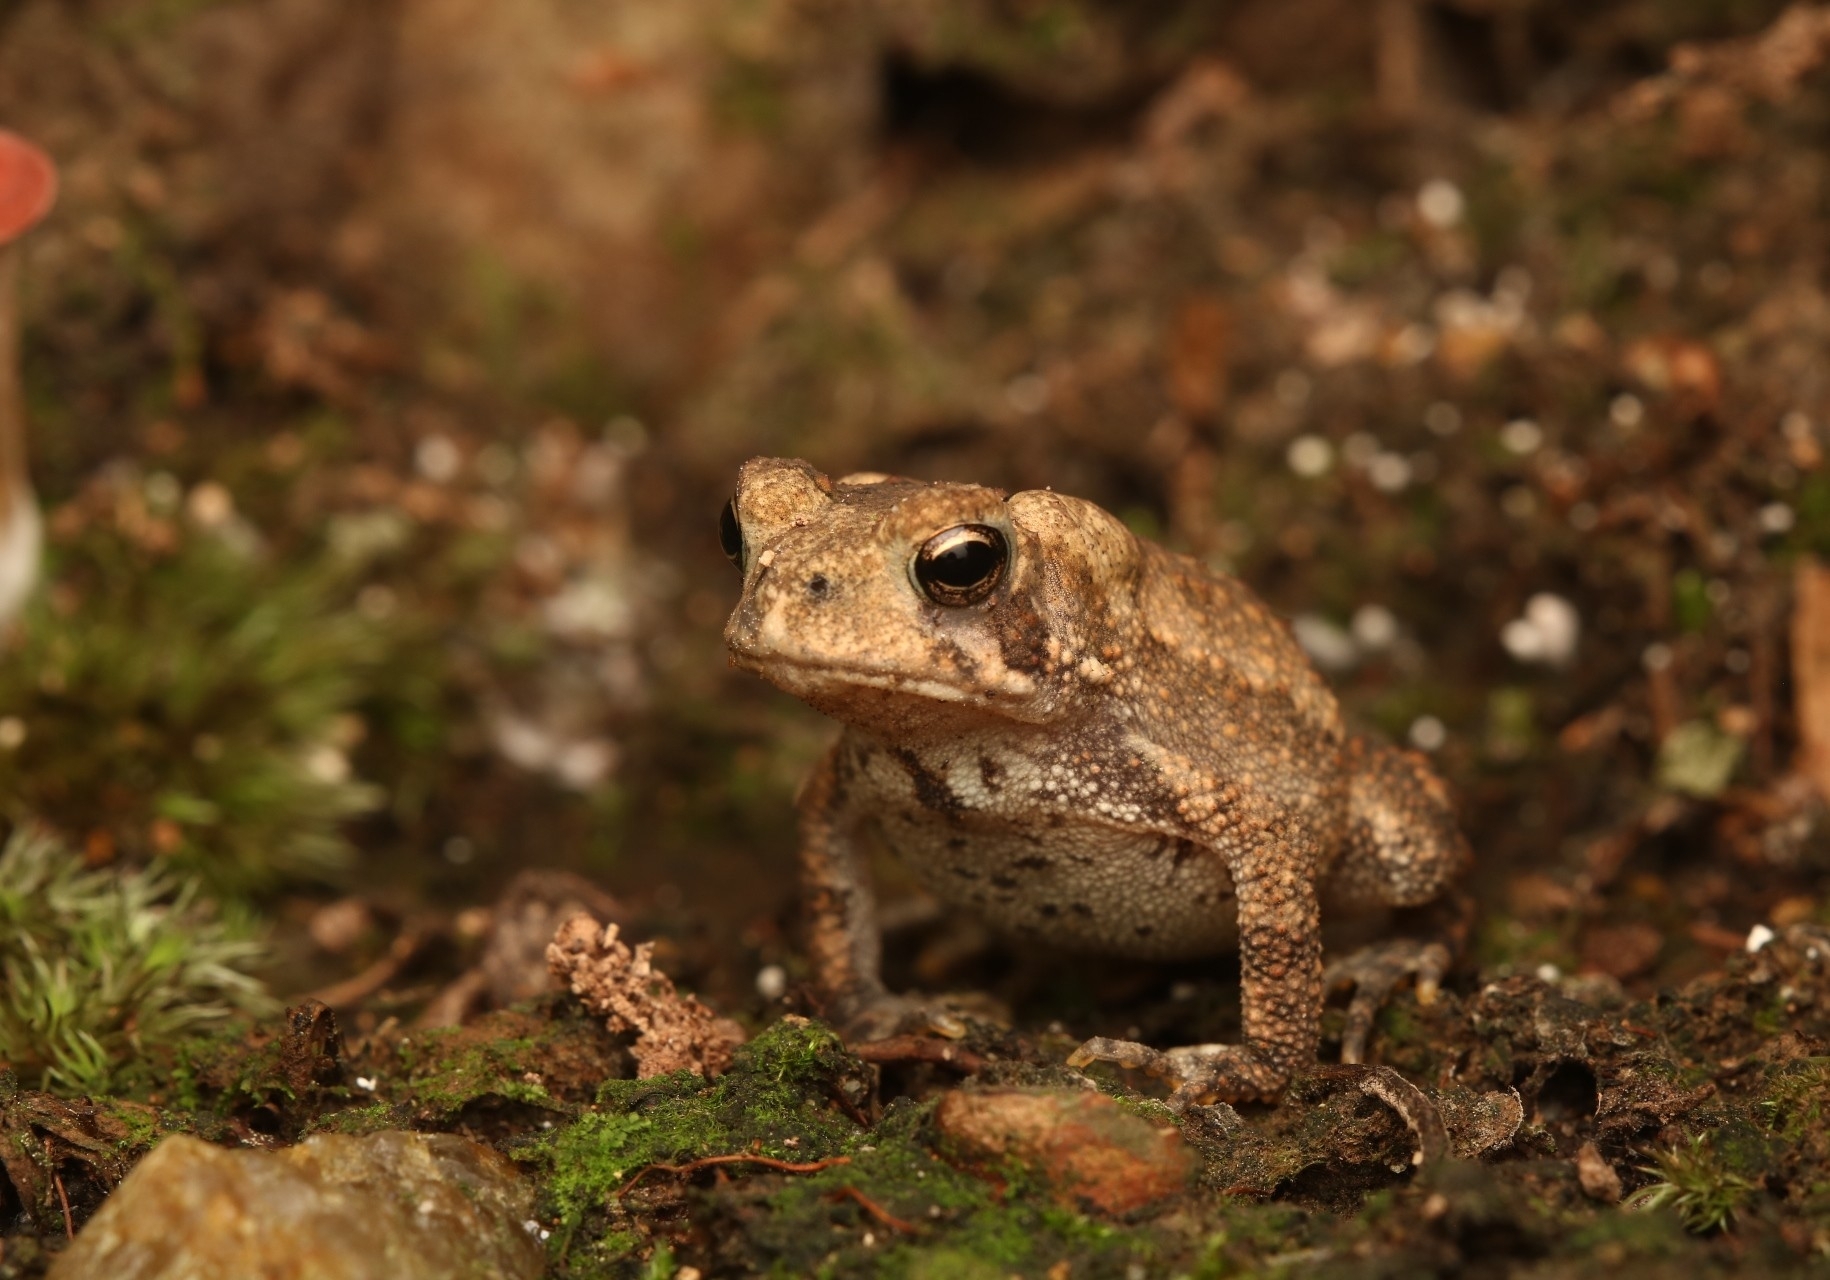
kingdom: Animalia
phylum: Chordata
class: Amphibia
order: Anura
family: Bufonidae
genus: Anaxyrus
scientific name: Anaxyrus americanus
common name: American toad
